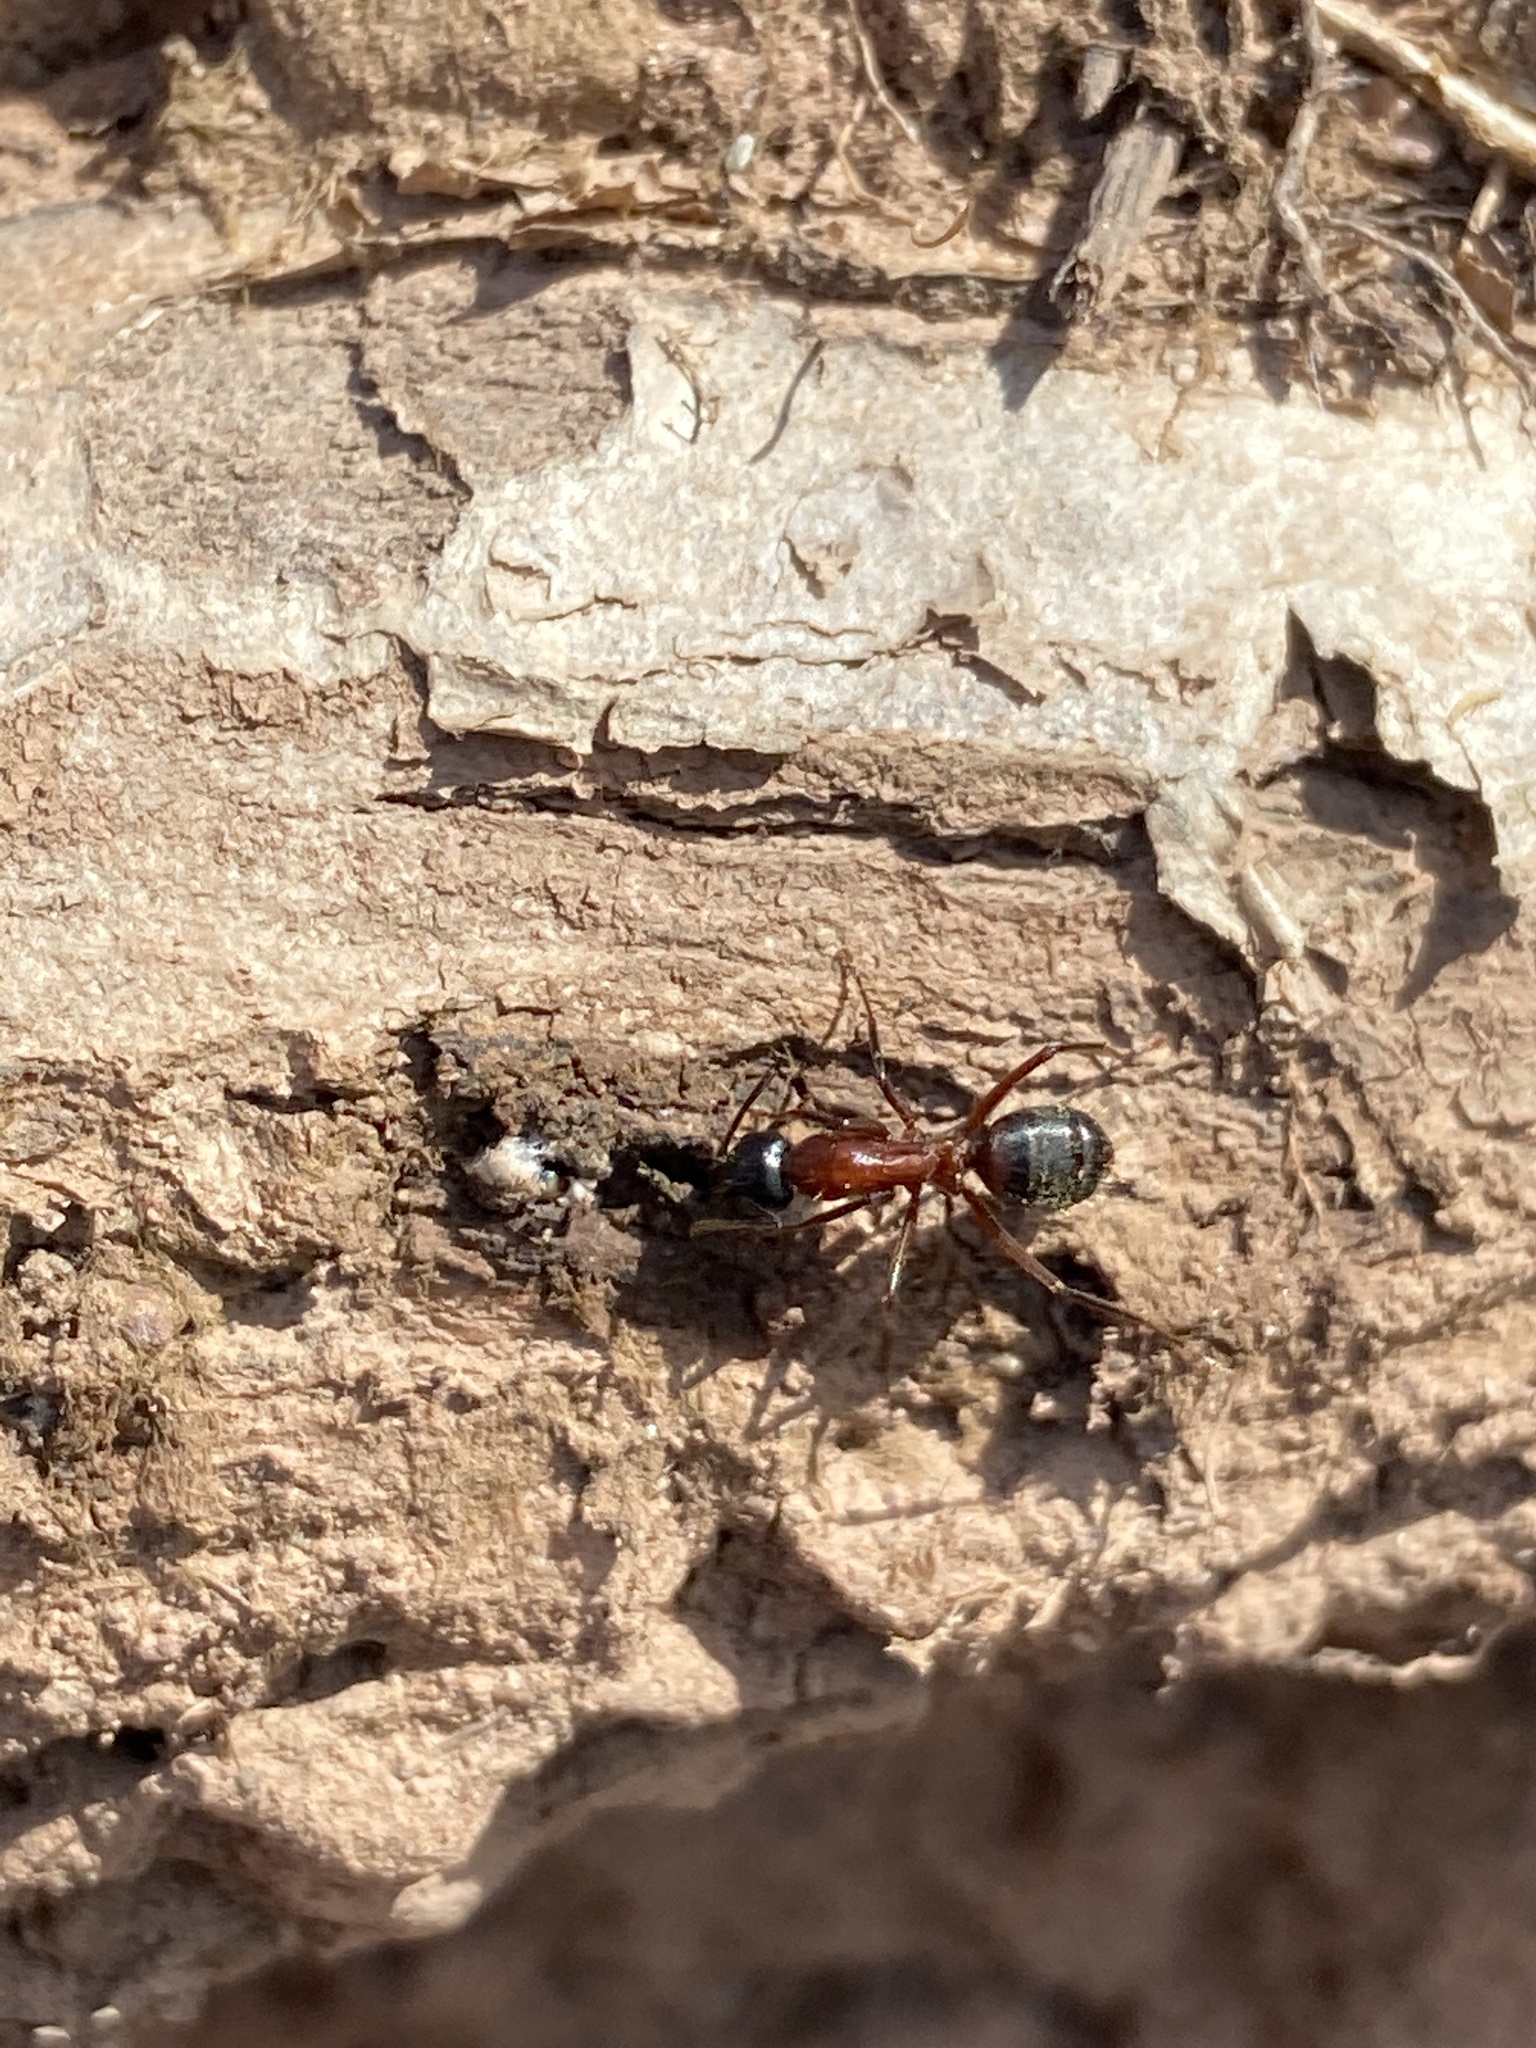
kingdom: Animalia
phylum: Arthropoda
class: Insecta
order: Hymenoptera
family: Formicidae
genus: Camponotus
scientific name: Camponotus ligniperdus
